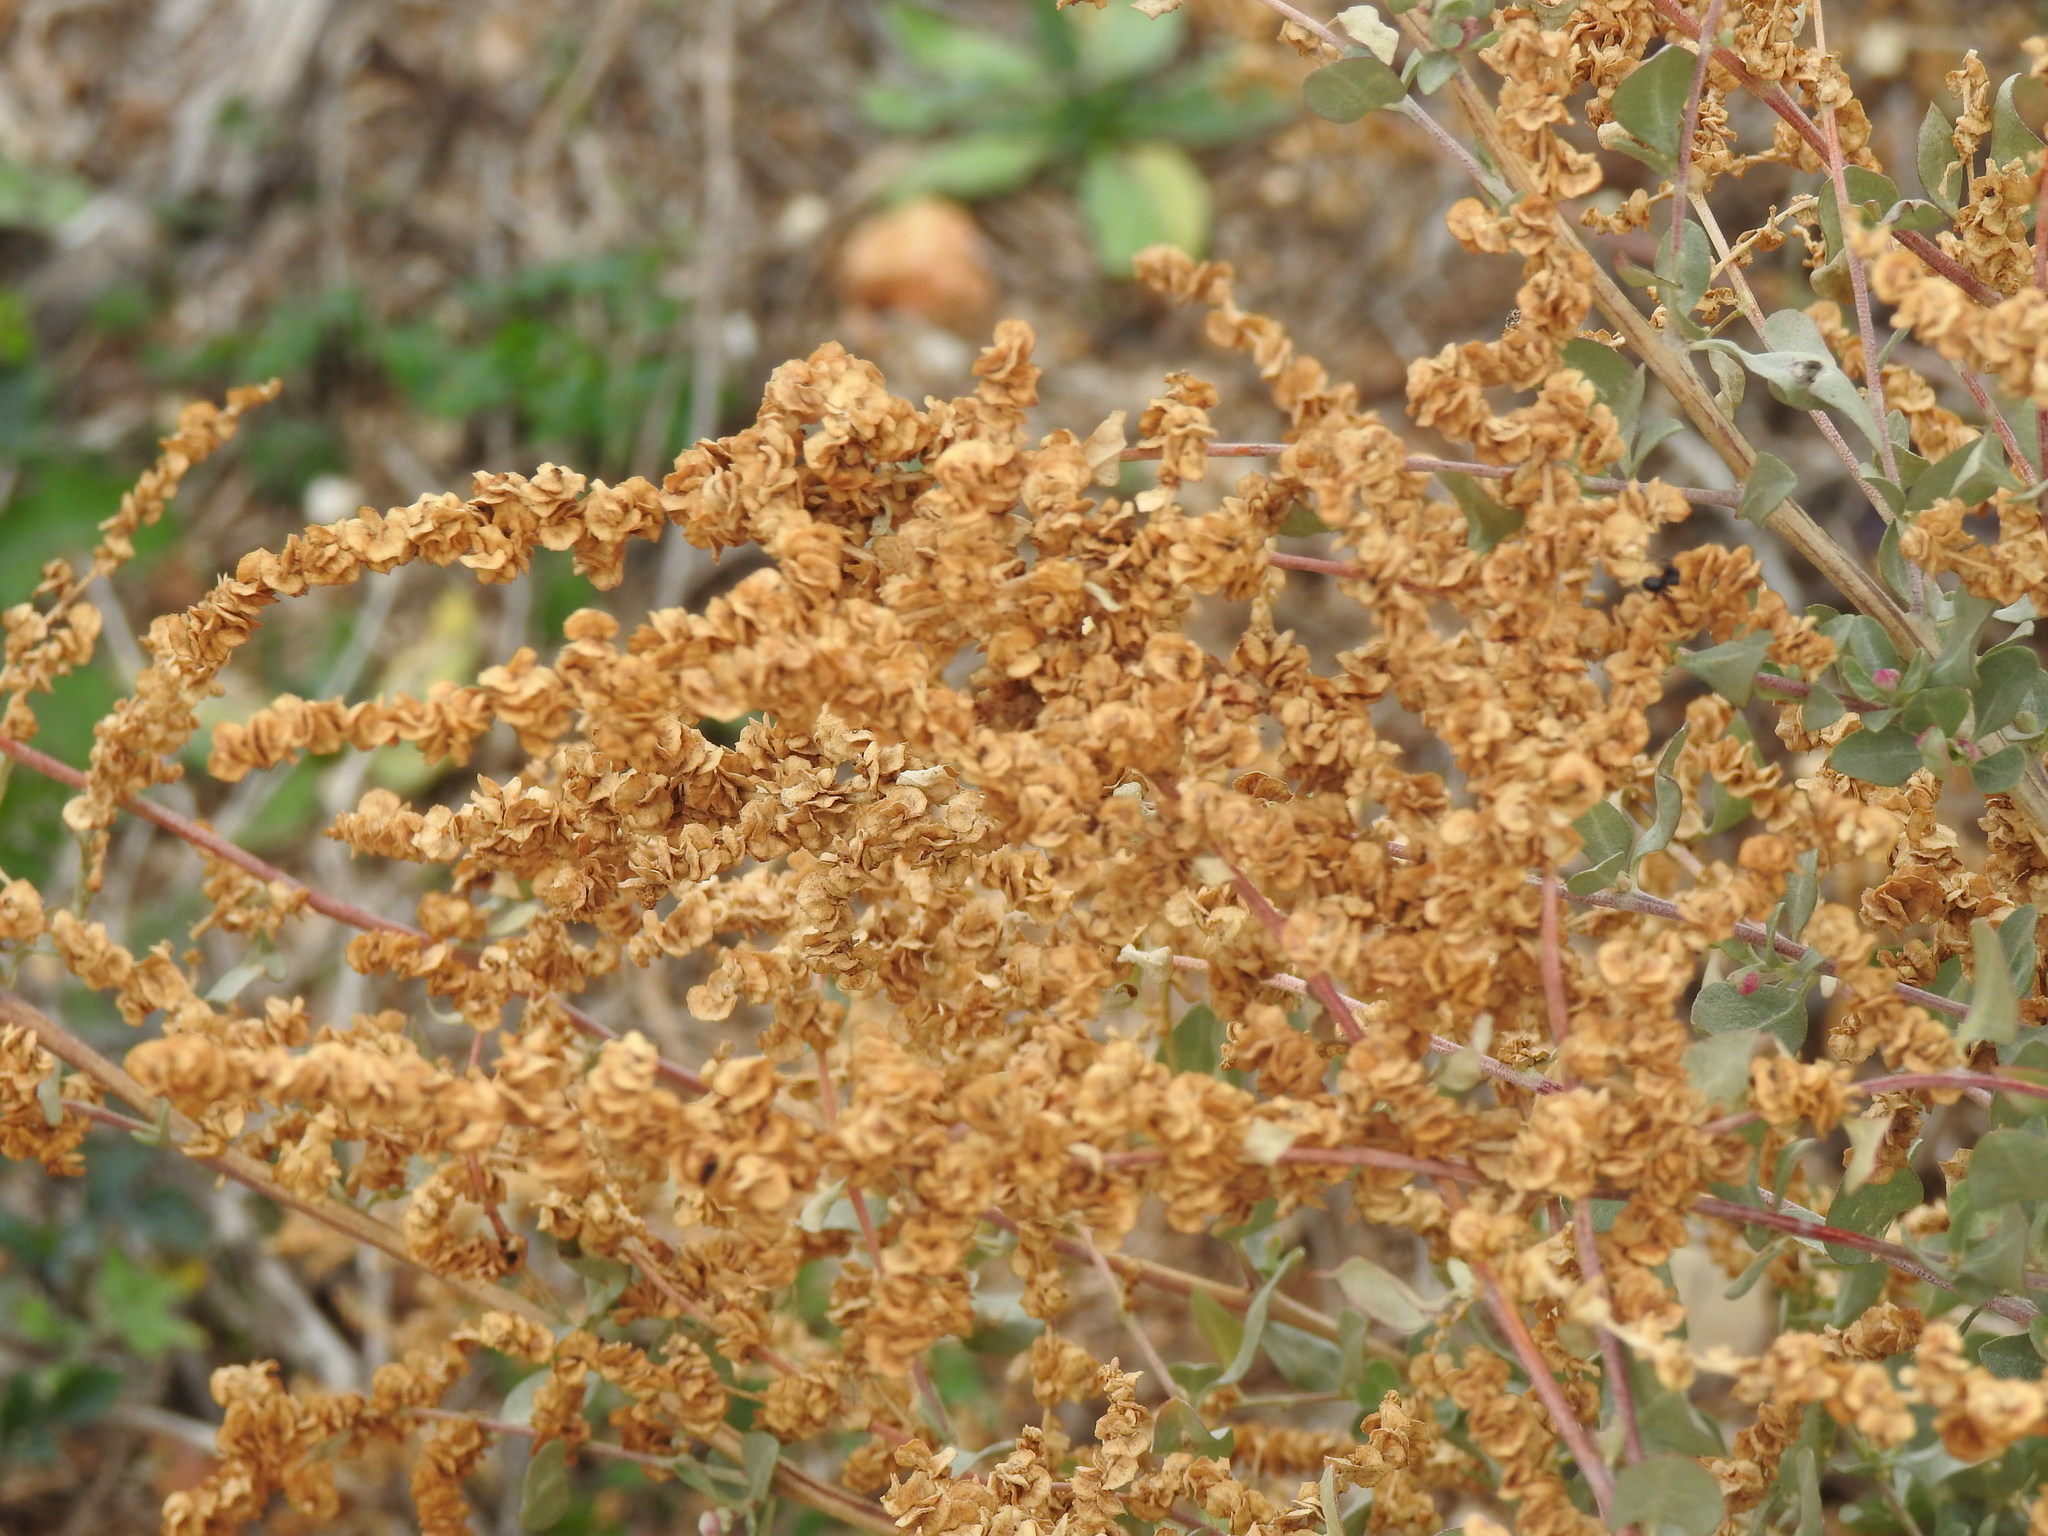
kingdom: Plantae
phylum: Tracheophyta
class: Magnoliopsida
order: Caryophyllales
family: Amaranthaceae
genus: Atriplex
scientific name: Atriplex halimus
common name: Shrubby orache
